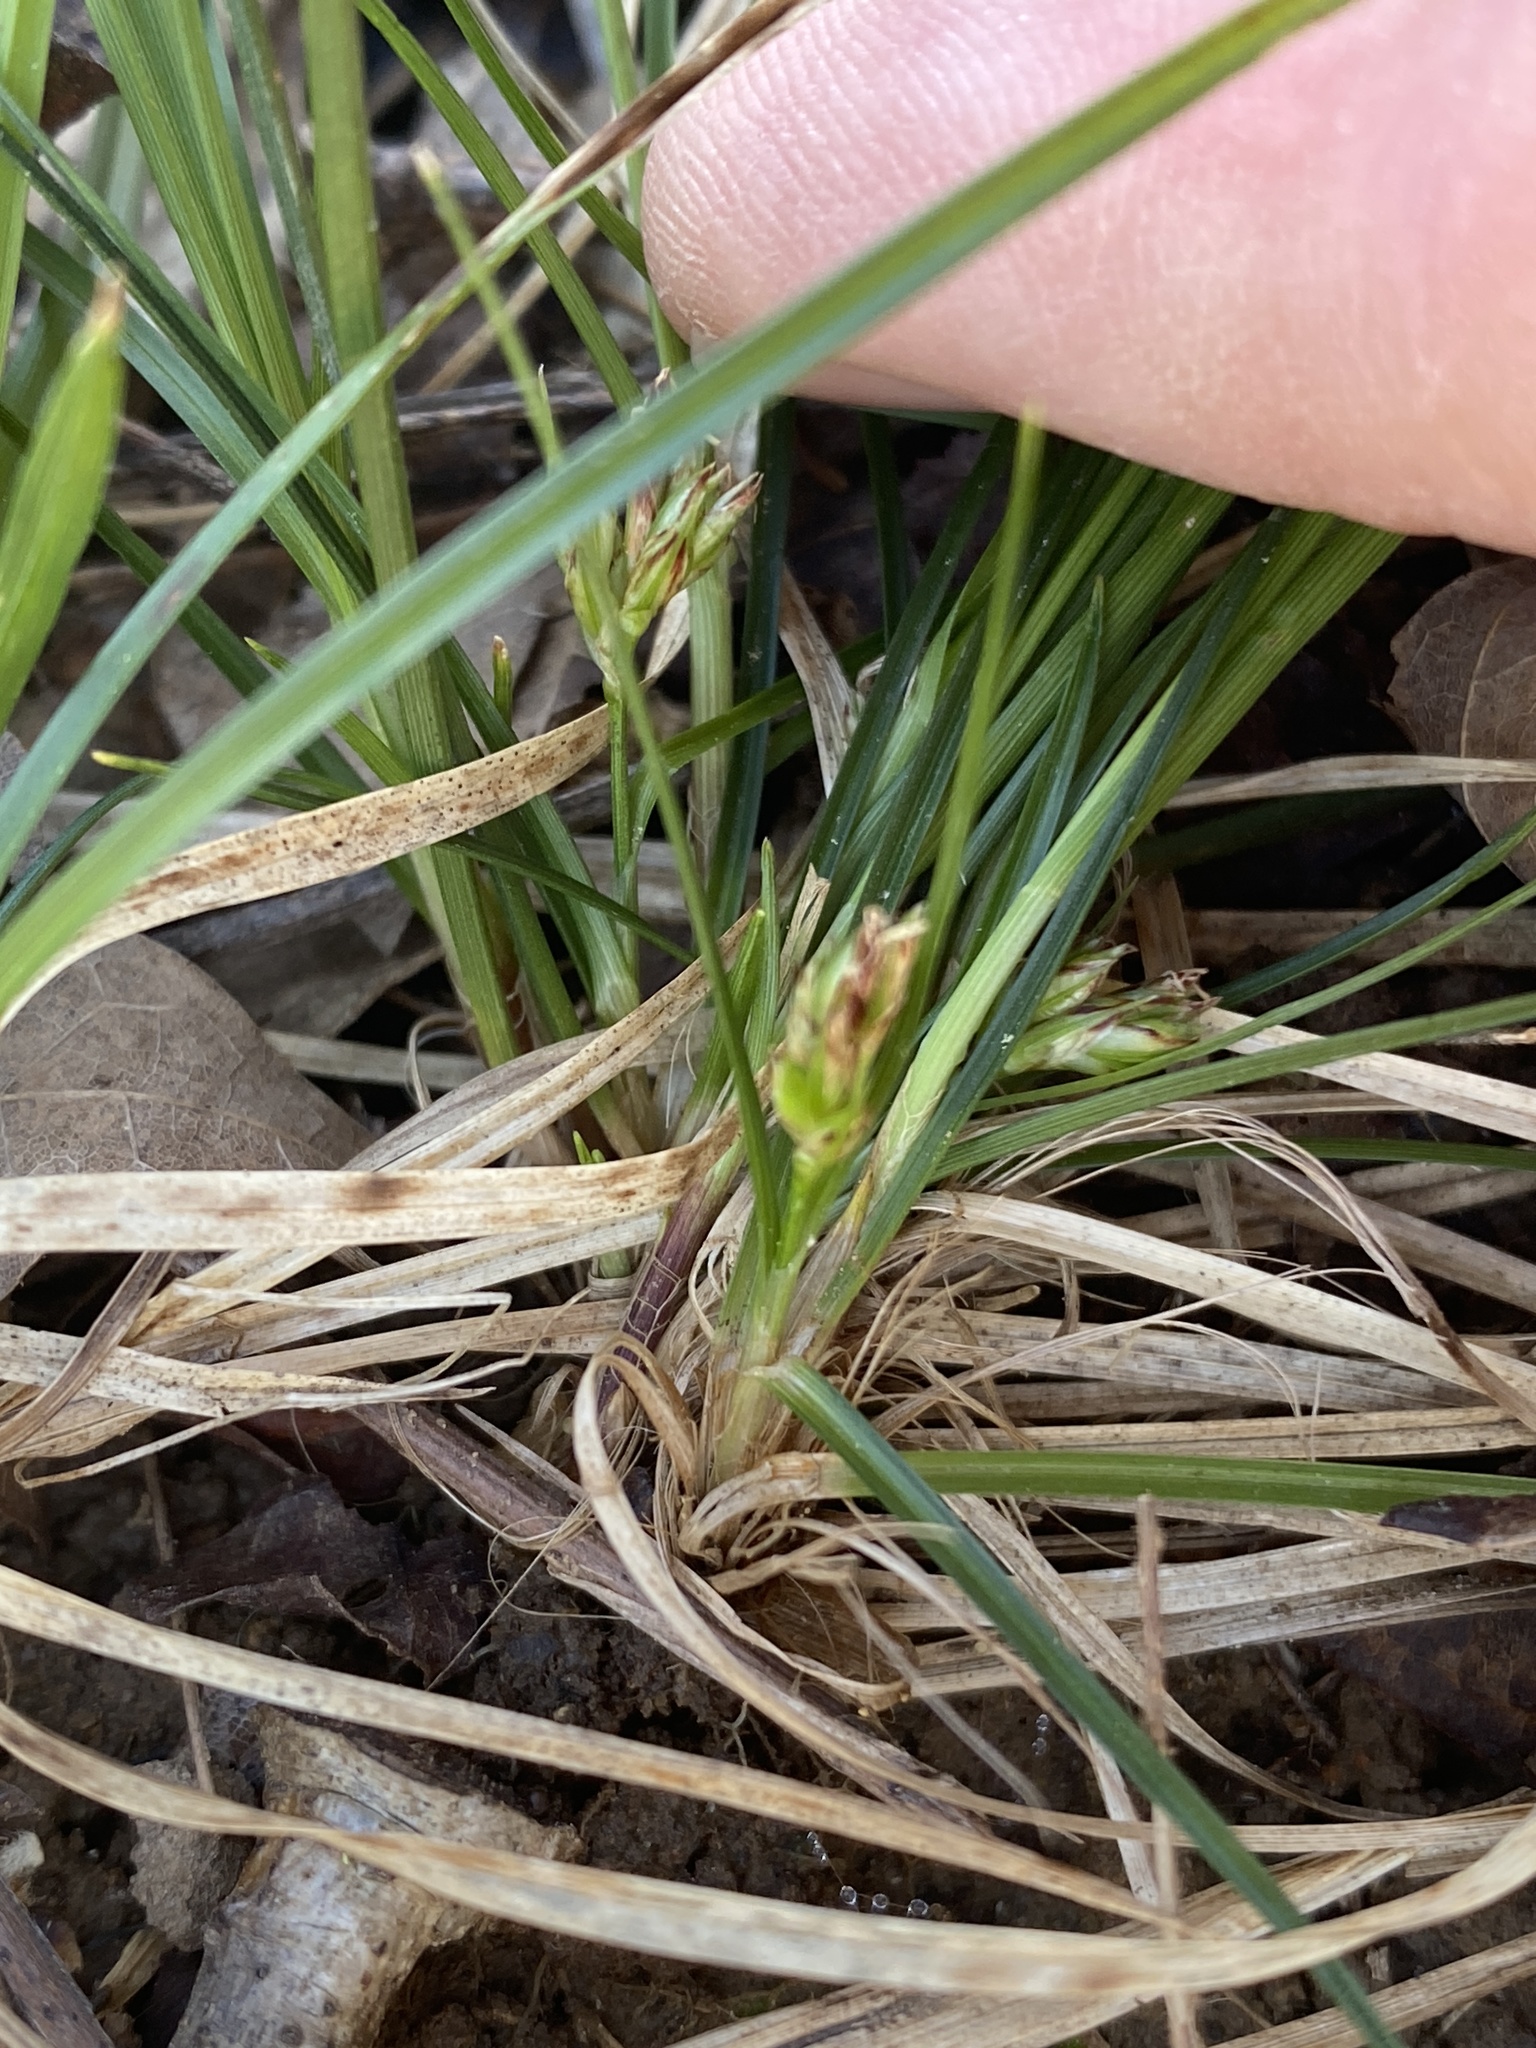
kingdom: Plantae
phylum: Tracheophyta
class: Liliopsida
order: Poales
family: Cyperaceae
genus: Carex
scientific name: Carex reznicekii
